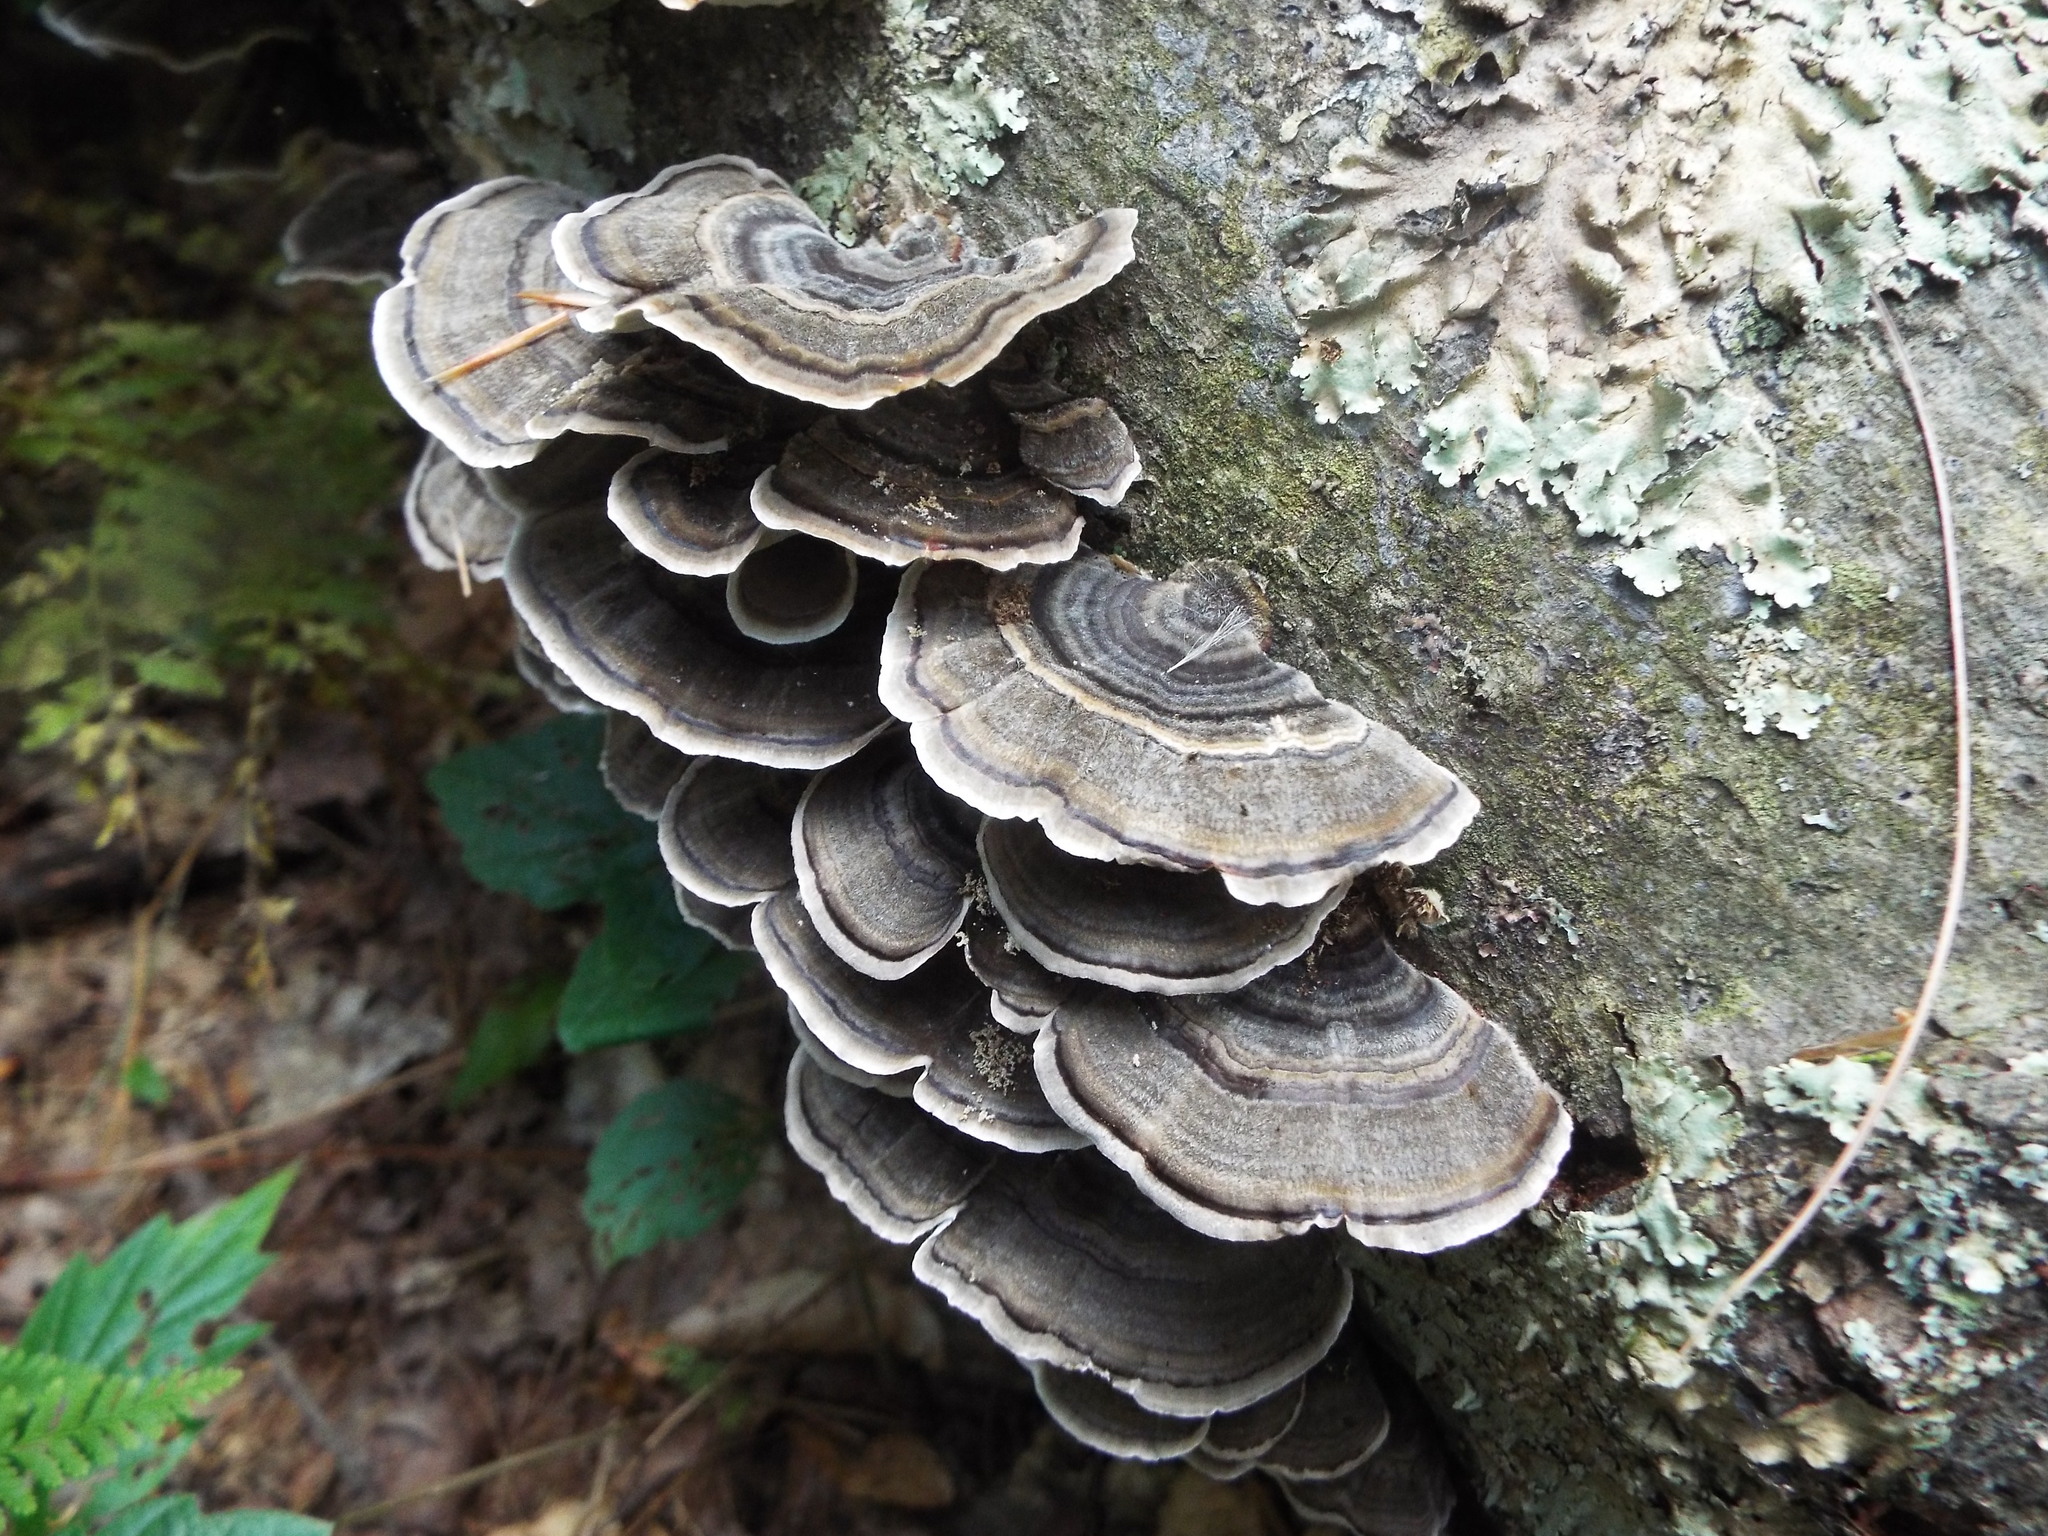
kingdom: Fungi
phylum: Basidiomycota
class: Agaricomycetes
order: Polyporales
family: Polyporaceae
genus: Trametes
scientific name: Trametes versicolor
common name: Turkeytail
